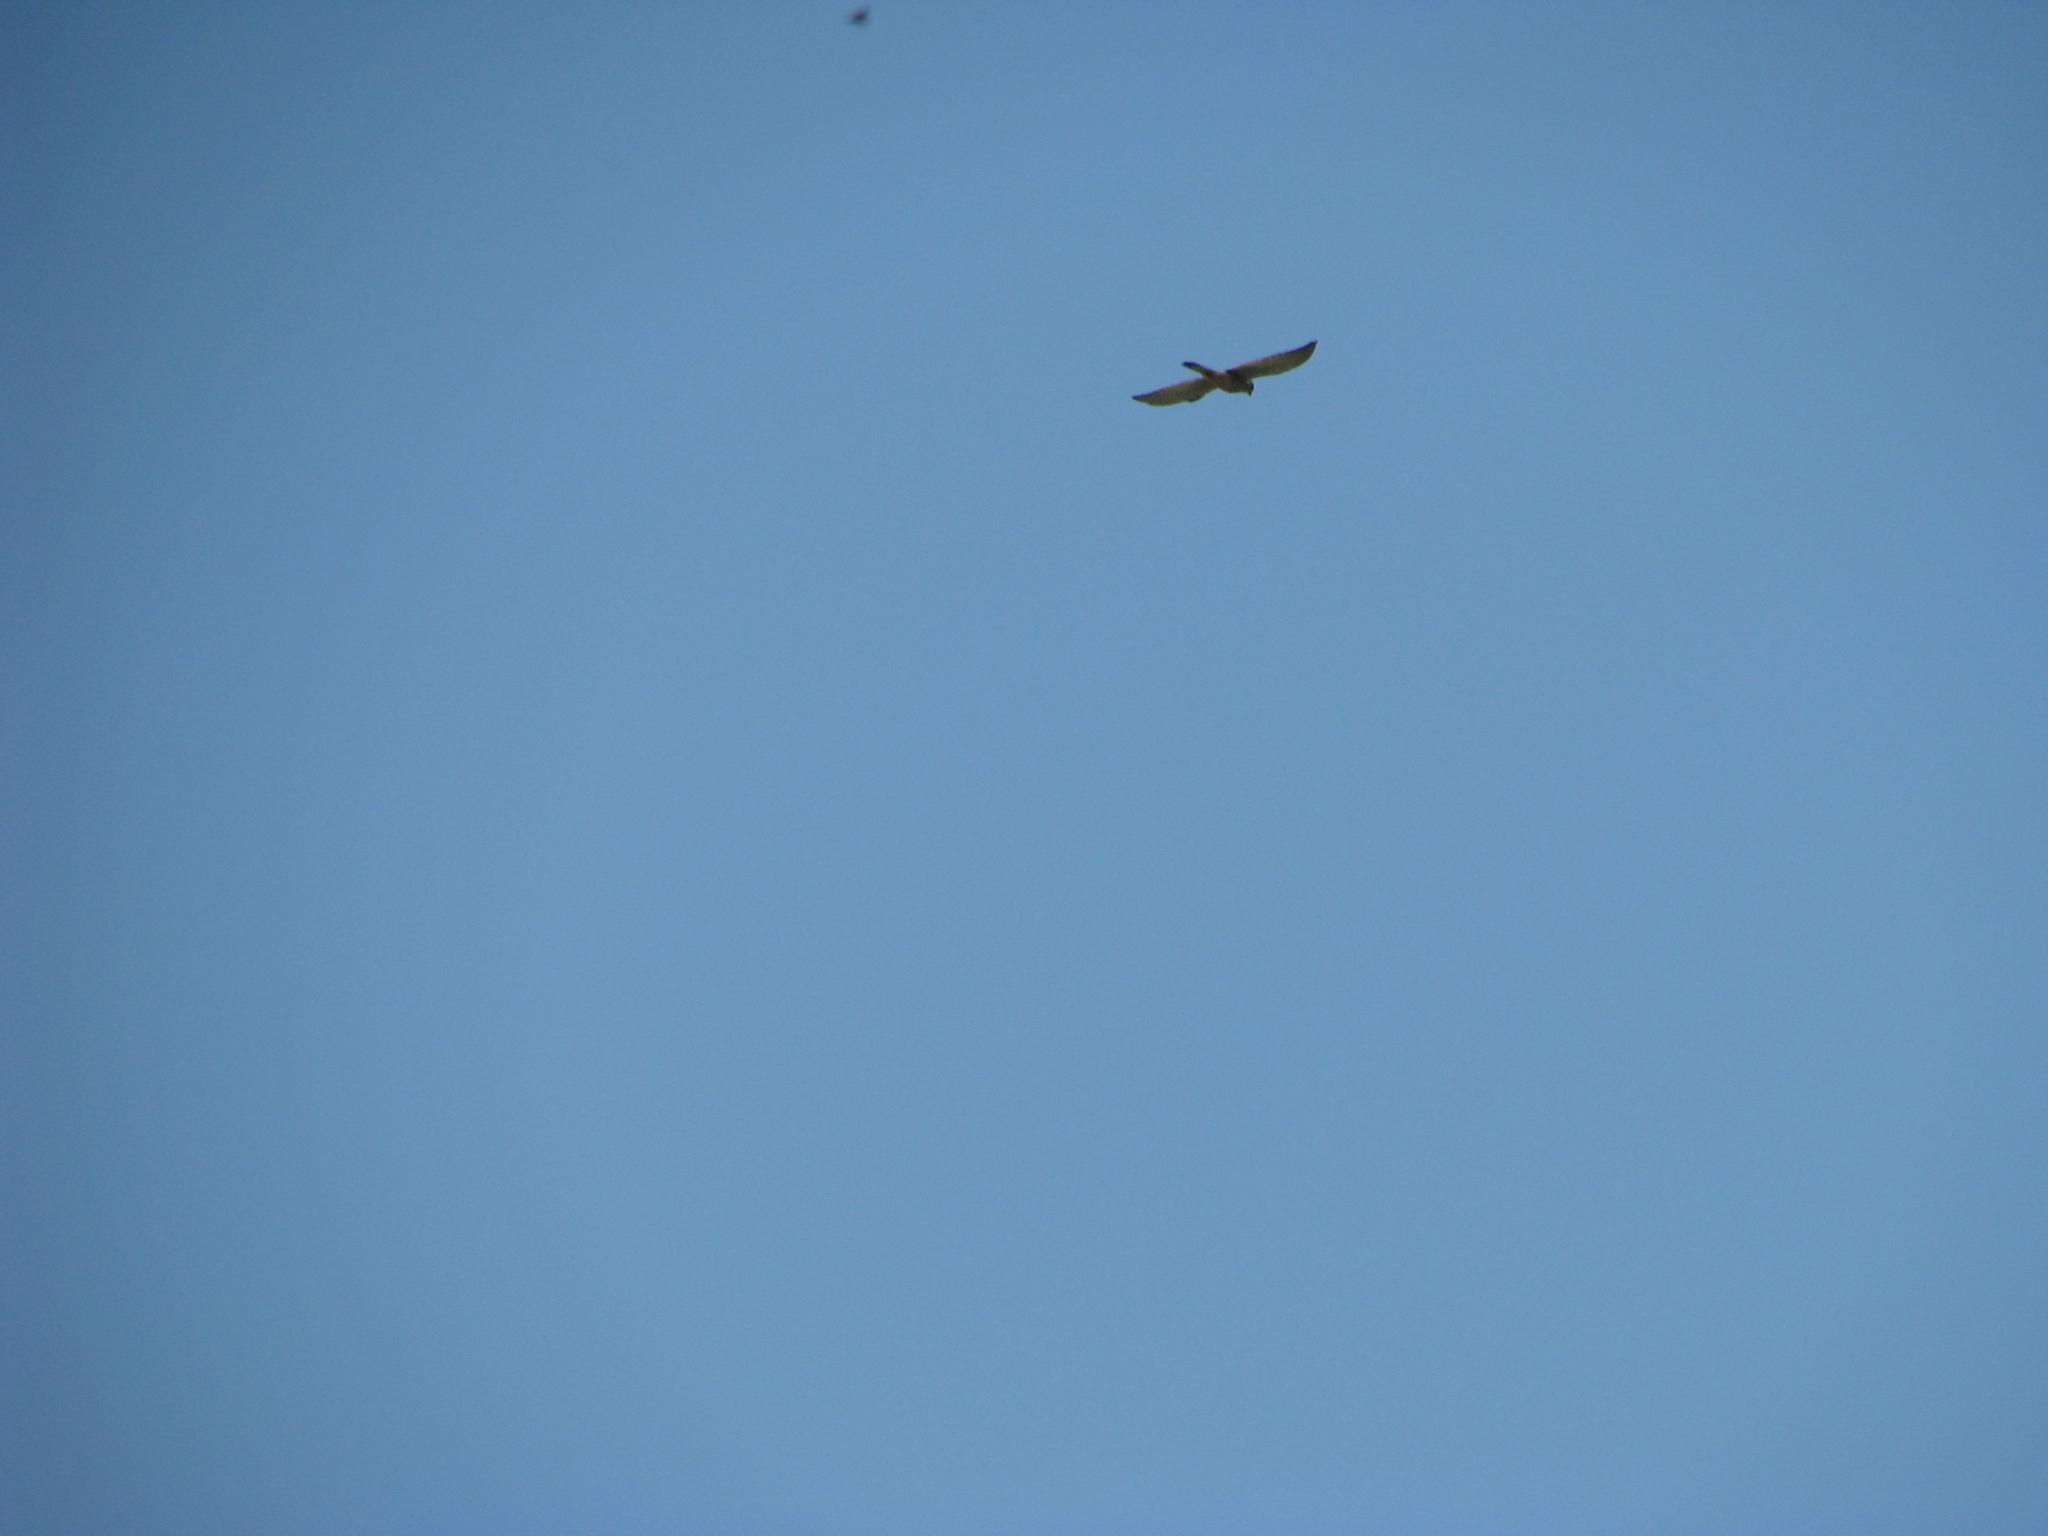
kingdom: Animalia
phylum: Chordata
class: Aves
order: Falconiformes
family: Falconidae
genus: Falco
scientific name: Falco tinnunculus
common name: Common kestrel
